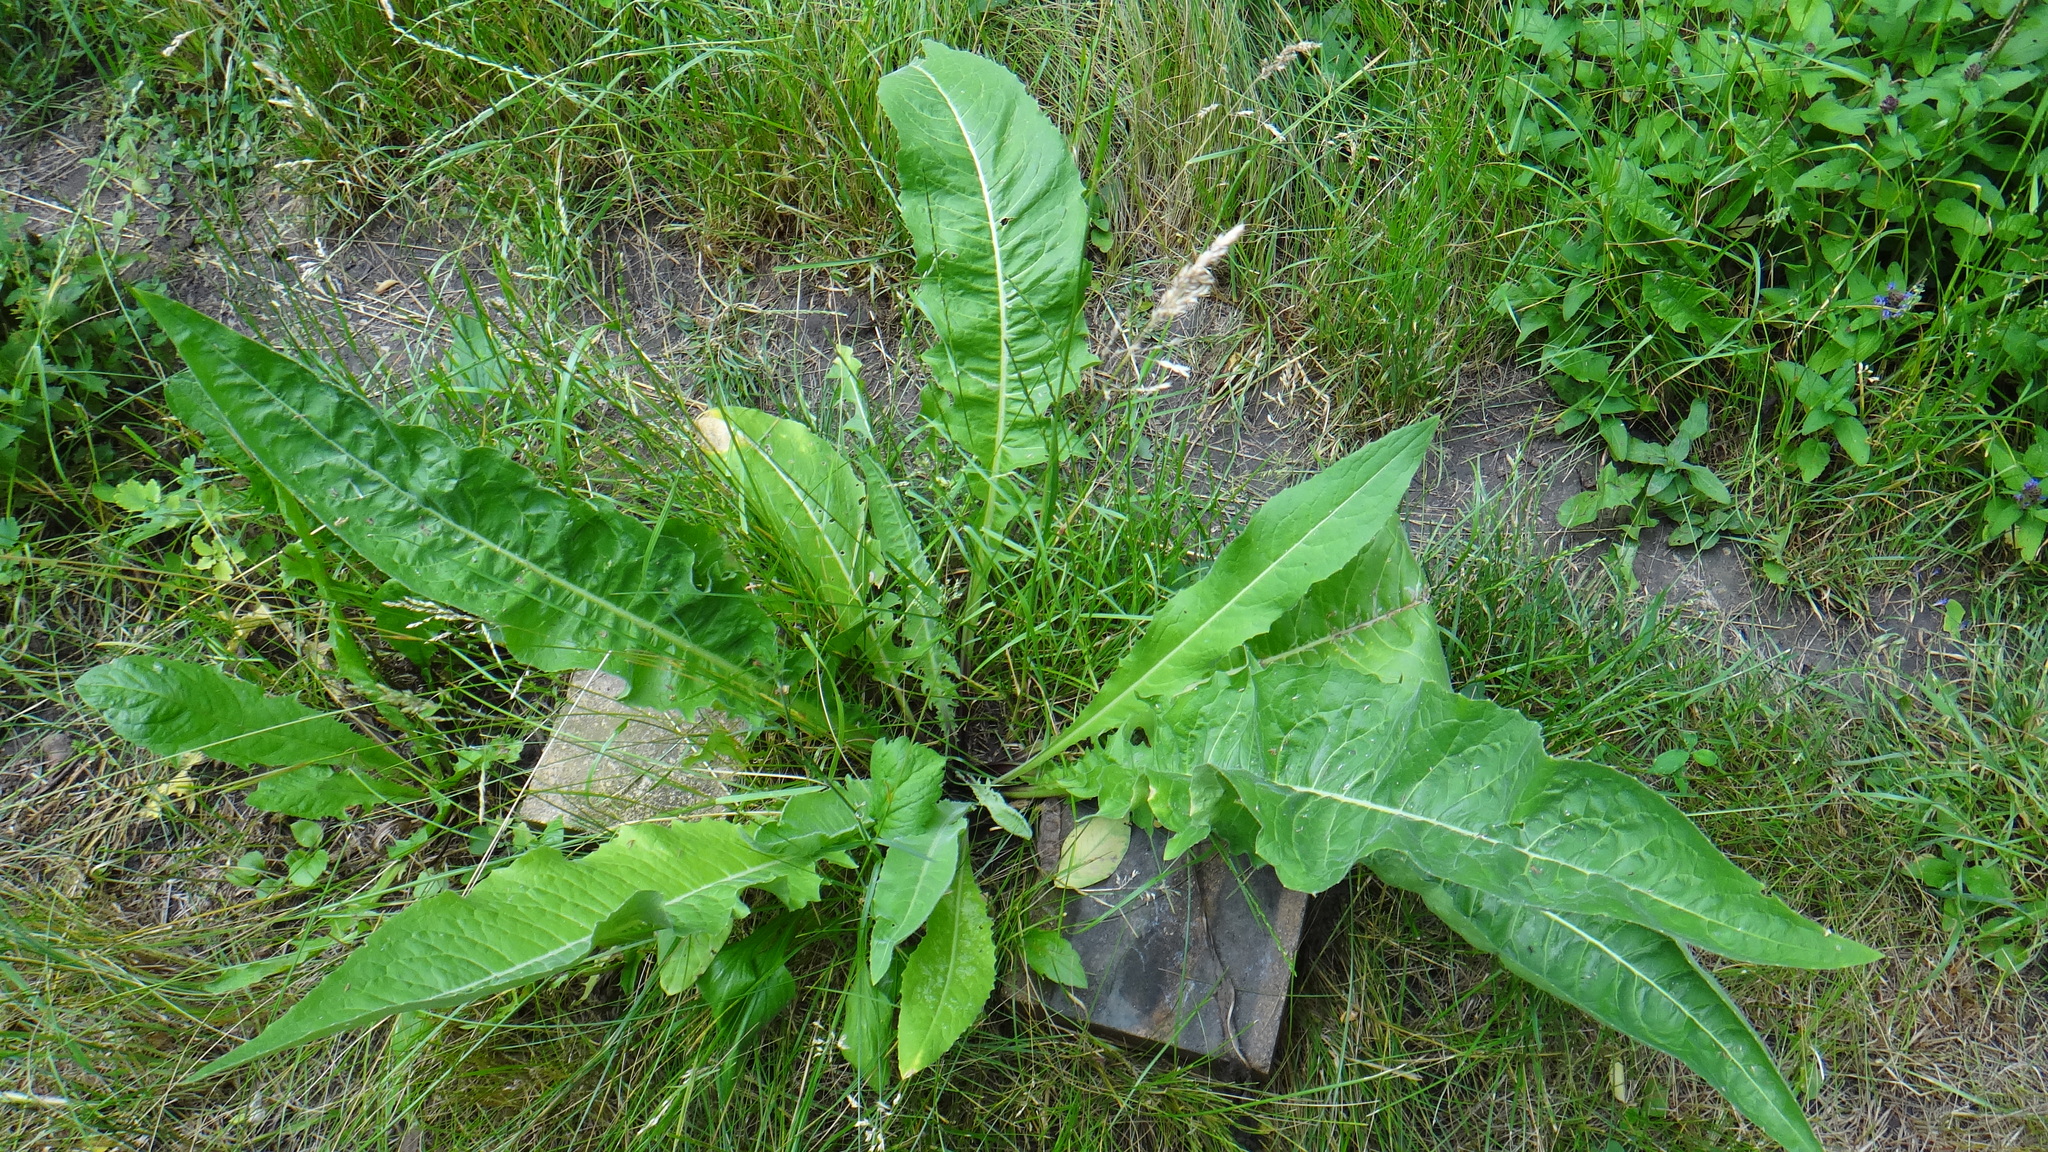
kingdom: Plantae
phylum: Tracheophyta
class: Magnoliopsida
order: Brassicales
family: Brassicaceae
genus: Bunias
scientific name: Bunias orientalis
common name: Warty-cabbage
